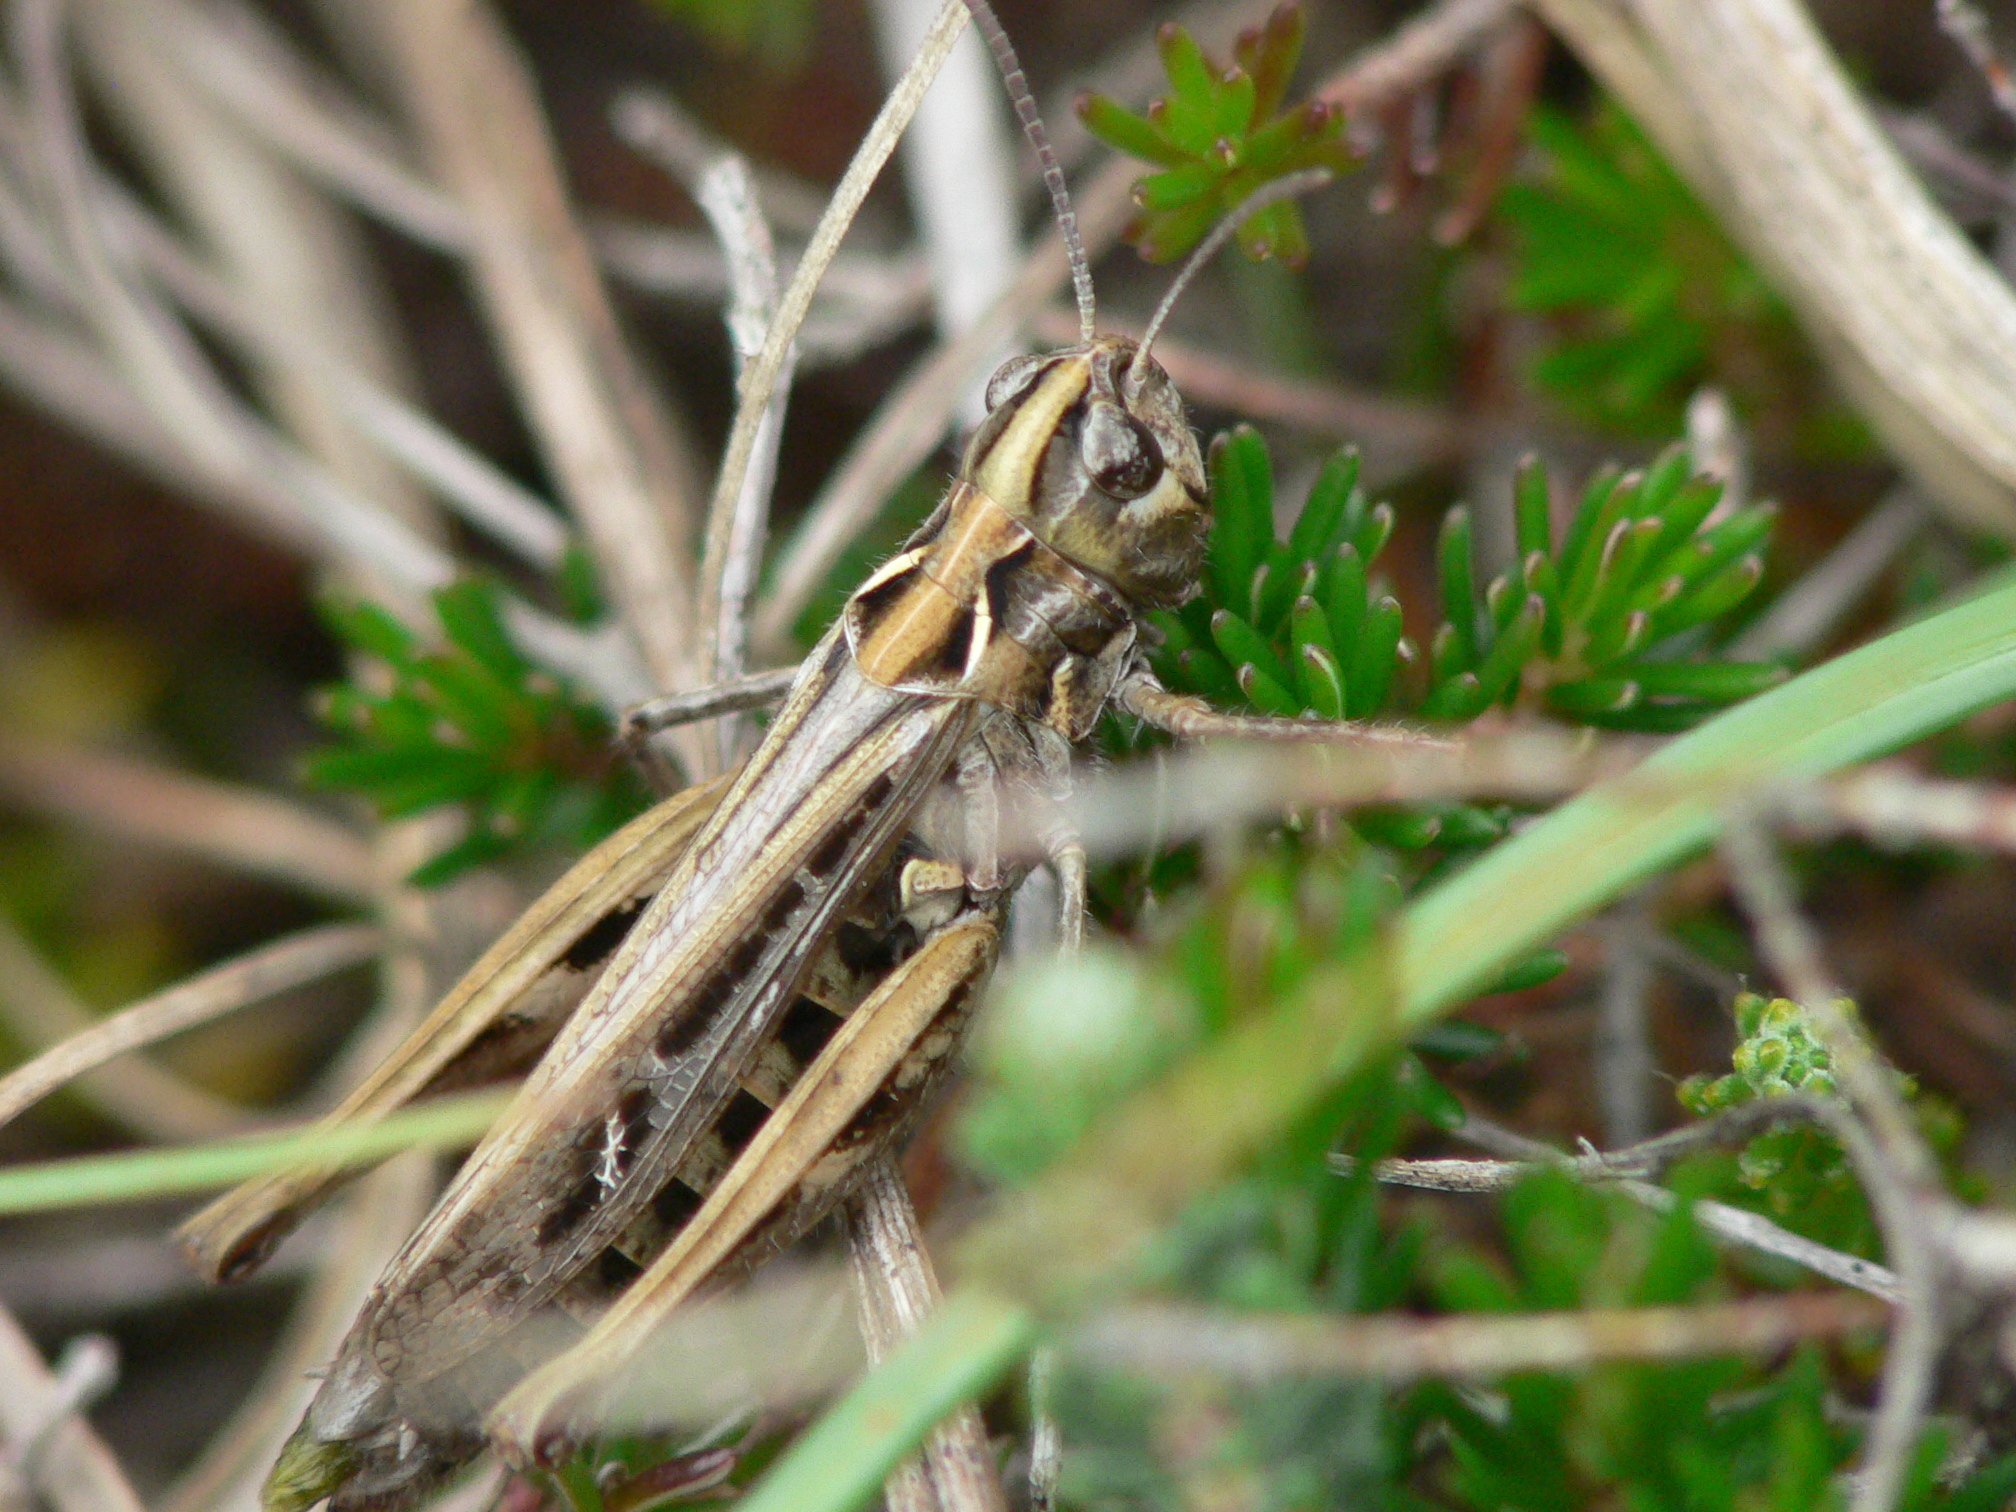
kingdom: Animalia
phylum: Arthropoda
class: Insecta
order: Orthoptera
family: Acrididae
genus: Myrmeleotettix
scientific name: Myrmeleotettix maculatus
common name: Mottled grasshopper
